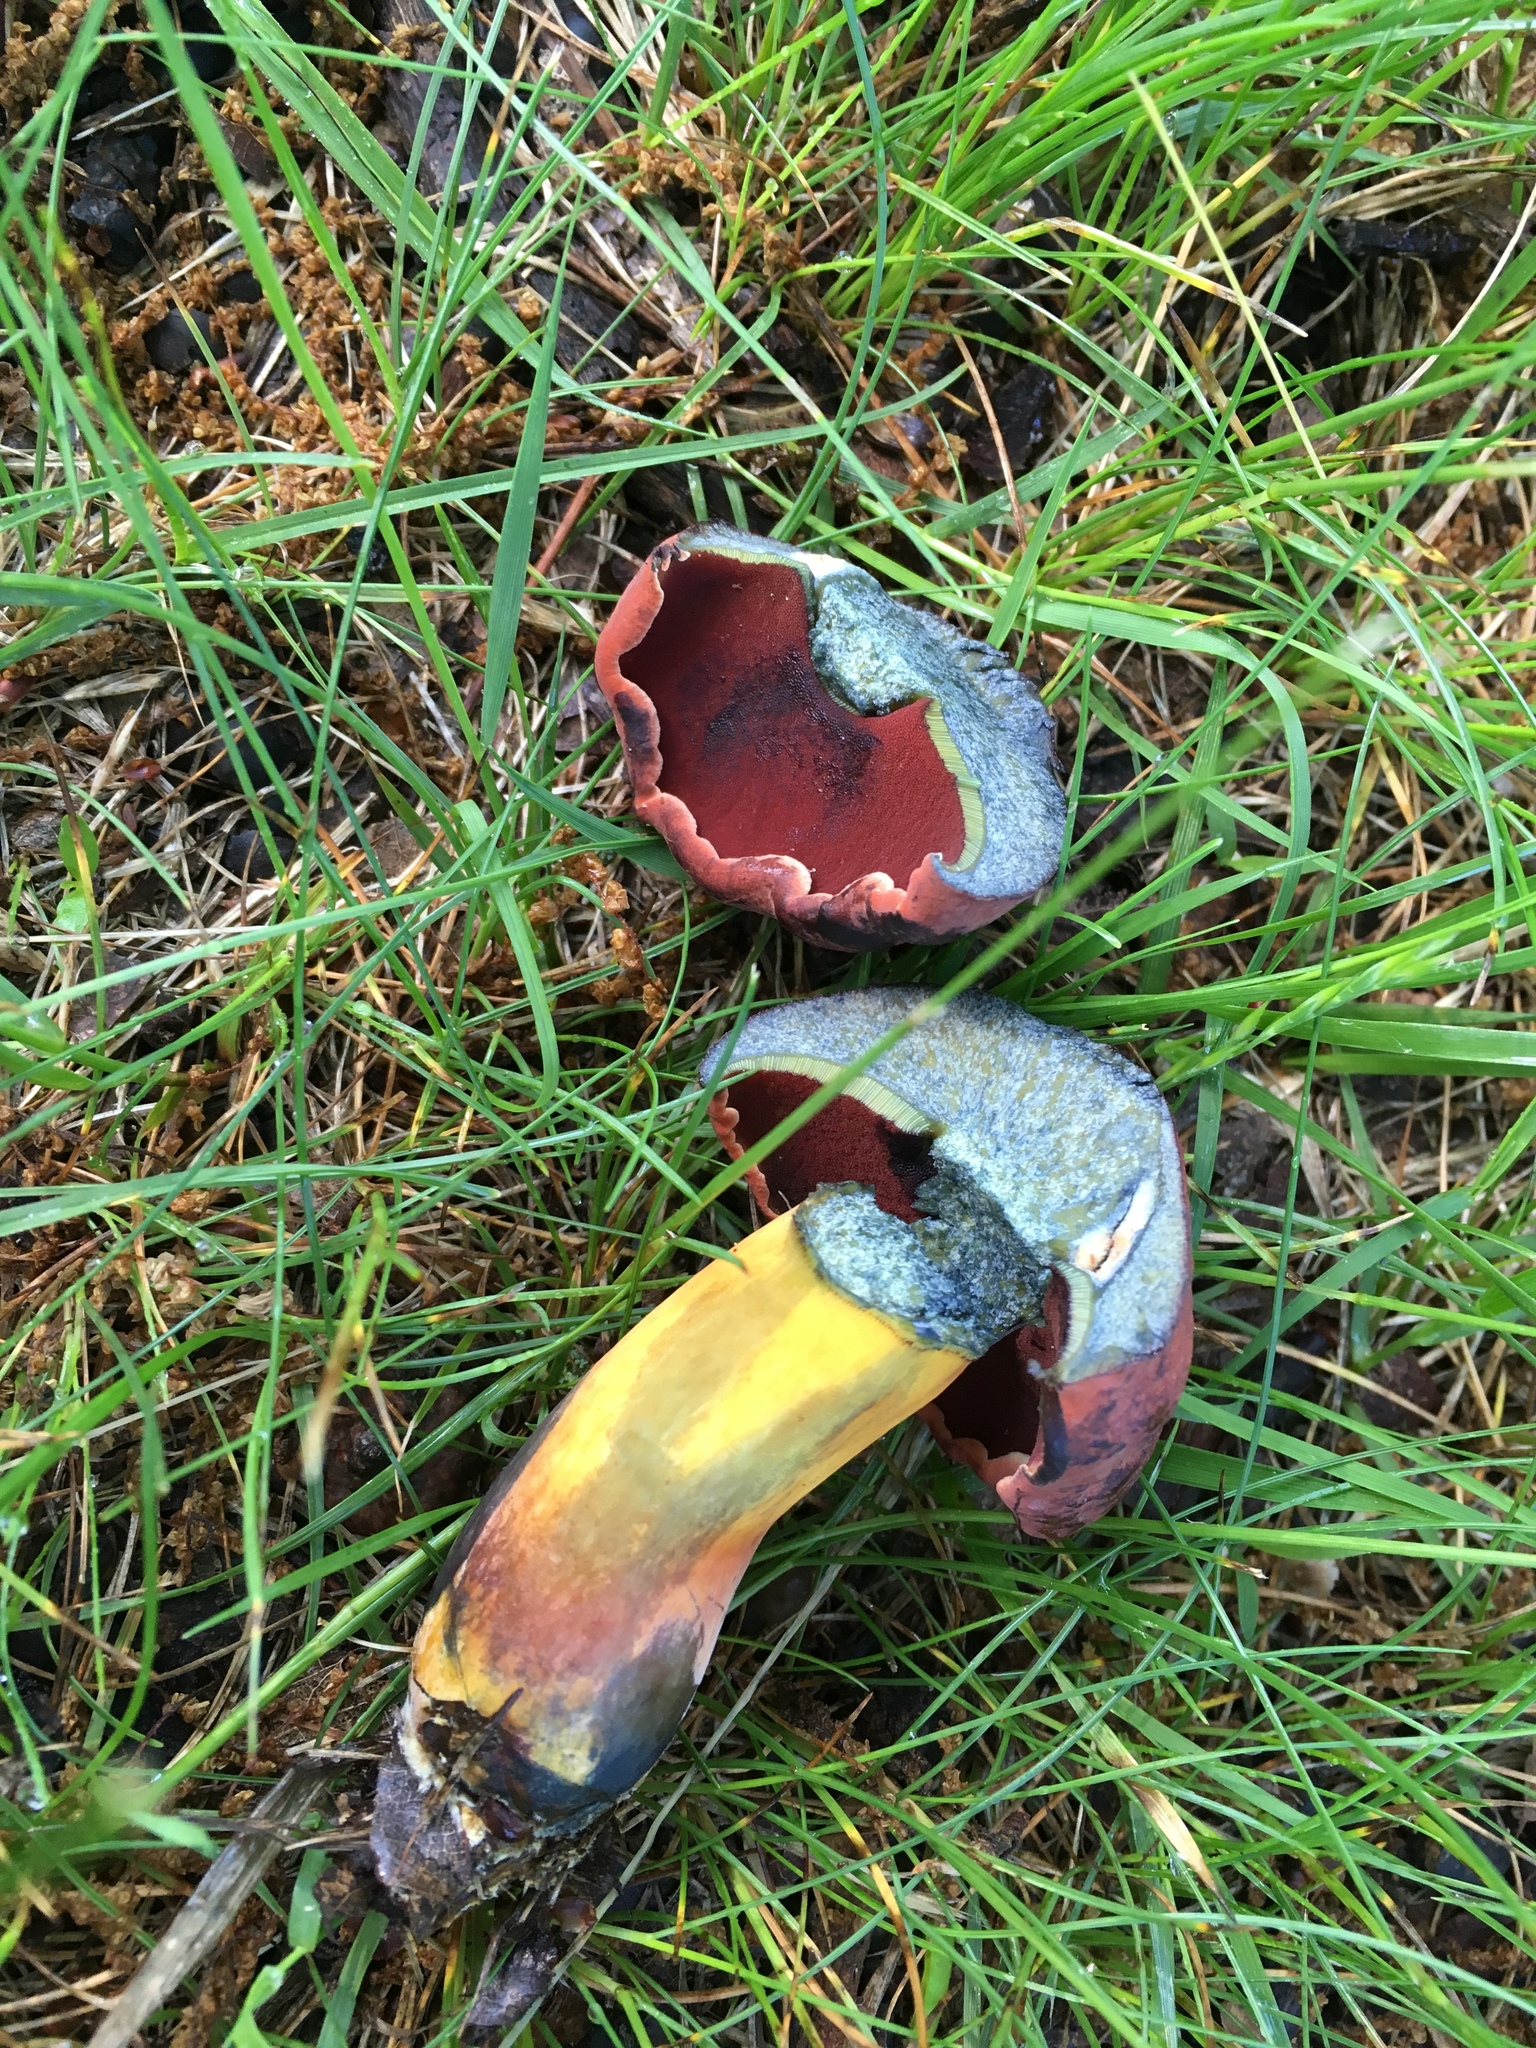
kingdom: Fungi
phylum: Basidiomycota
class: Agaricomycetes
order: Boletales
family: Boletaceae
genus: Neoboletus
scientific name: Neoboletus luridiformis
